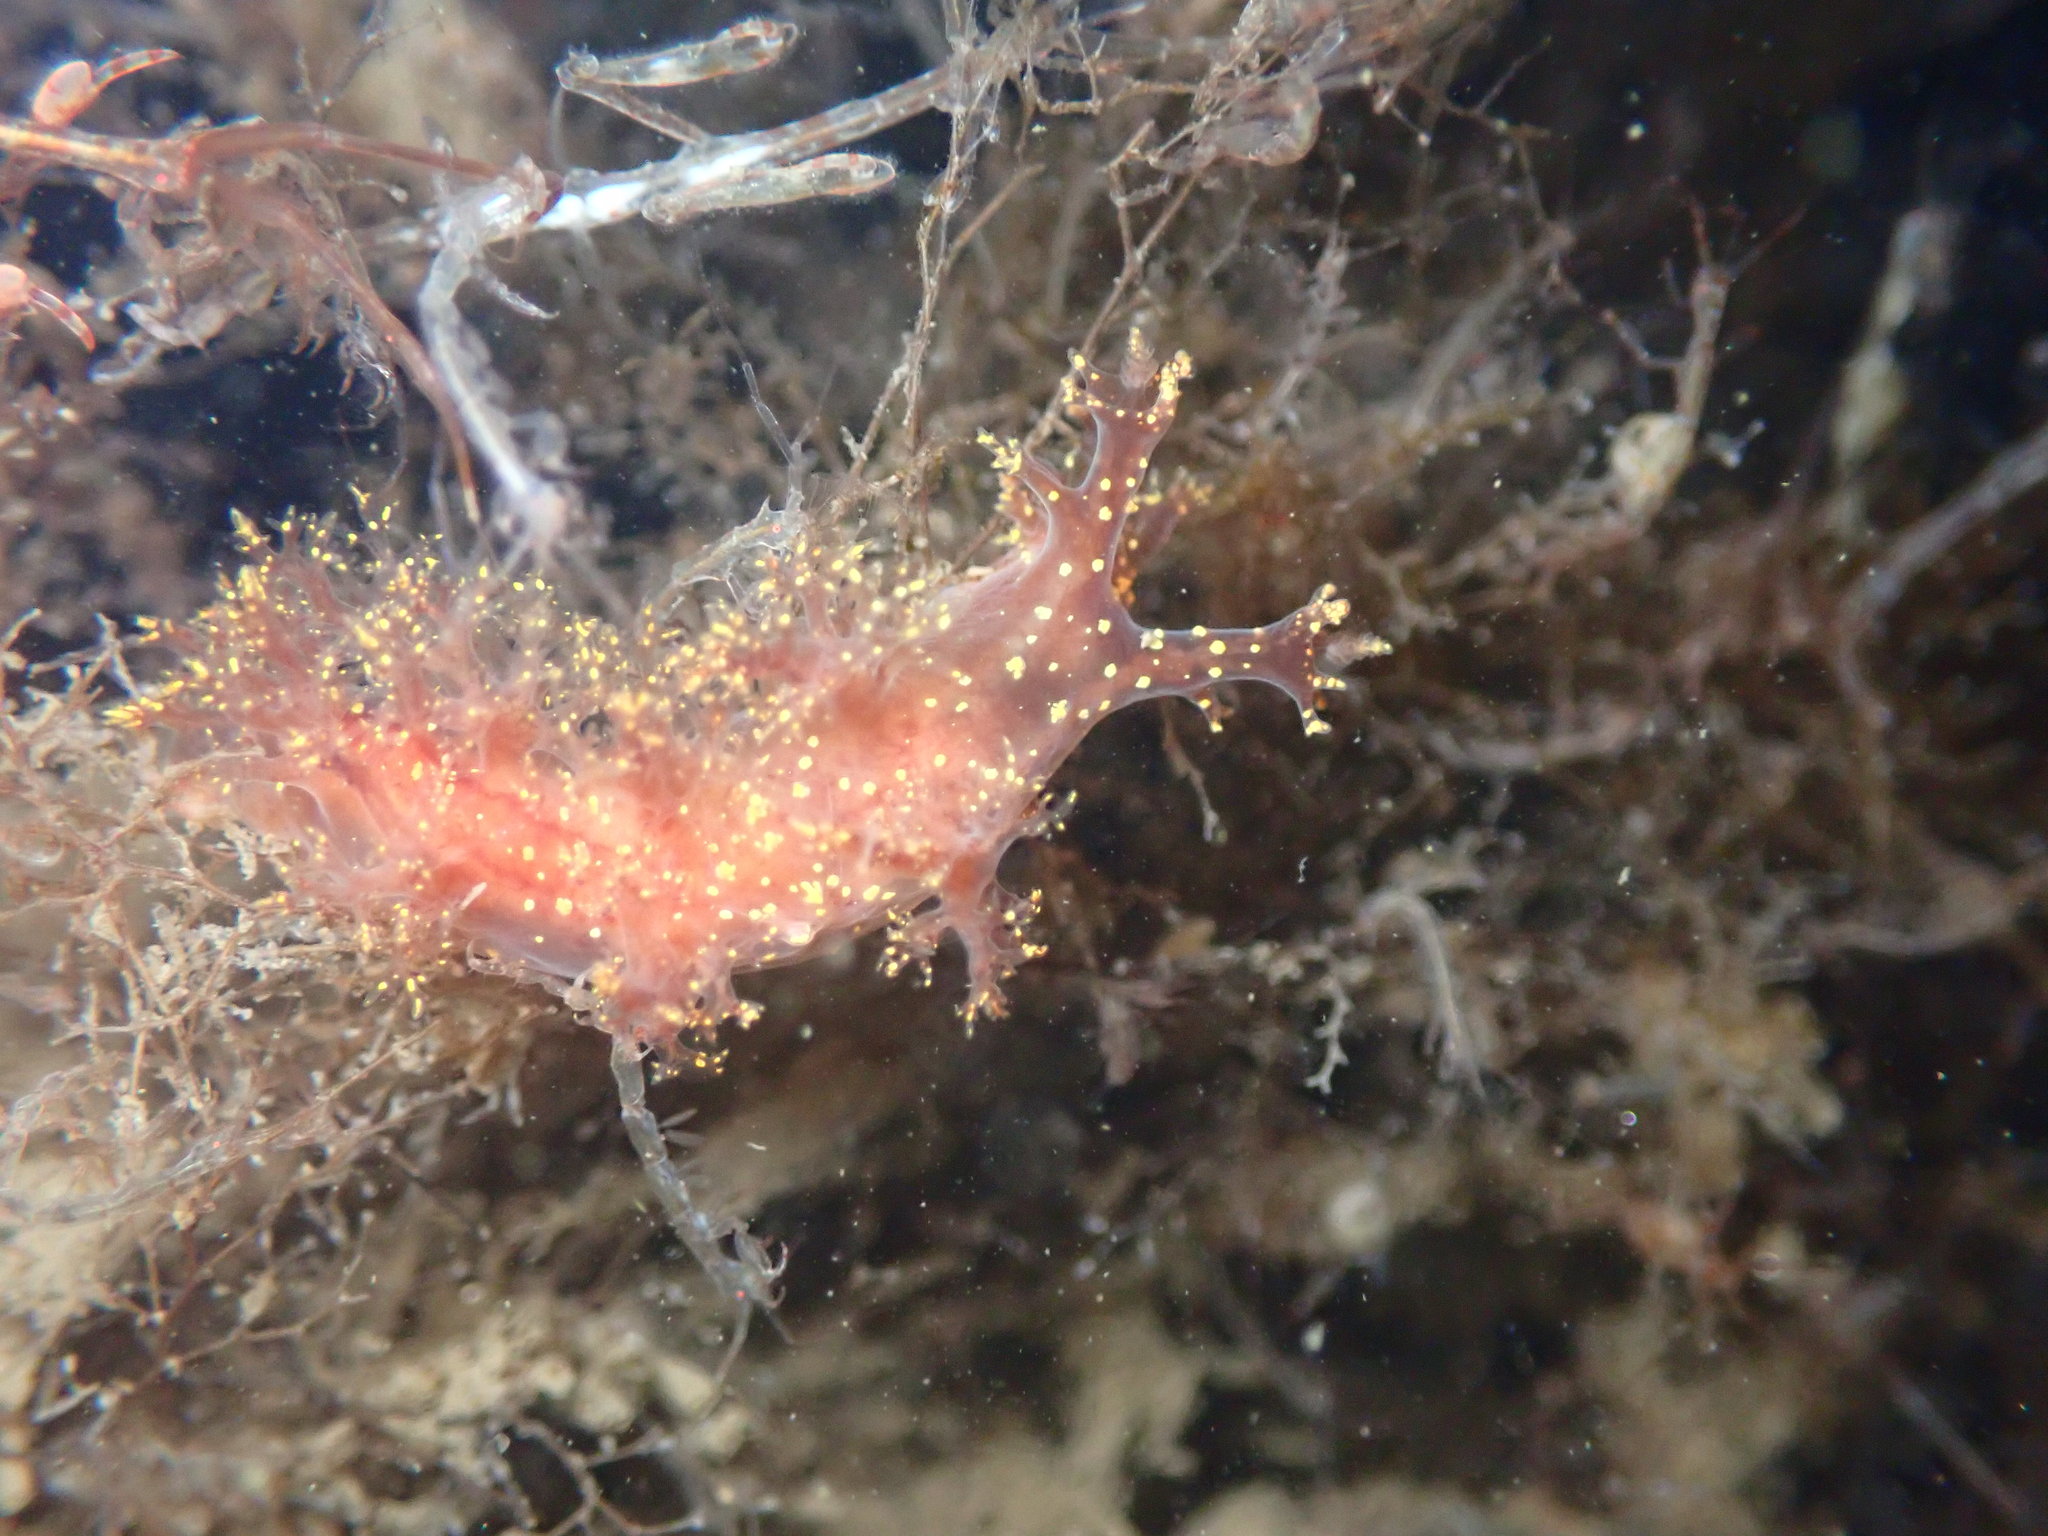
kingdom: Animalia
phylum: Mollusca
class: Gastropoda
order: Nudibranchia
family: Dendronotidae
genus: Dendronotus
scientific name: Dendronotus venustus
